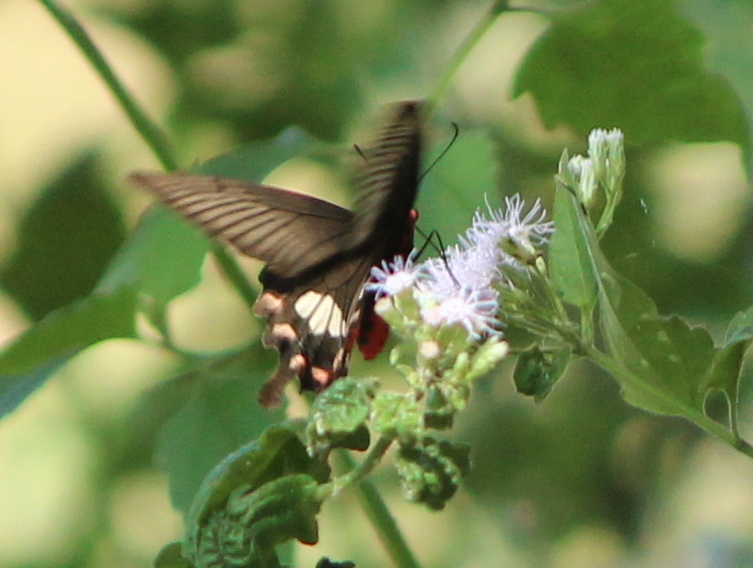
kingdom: Animalia
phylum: Arthropoda
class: Insecta
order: Lepidoptera
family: Papilionidae
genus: Pachliopta
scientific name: Pachliopta aristolochiae
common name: Common rose
